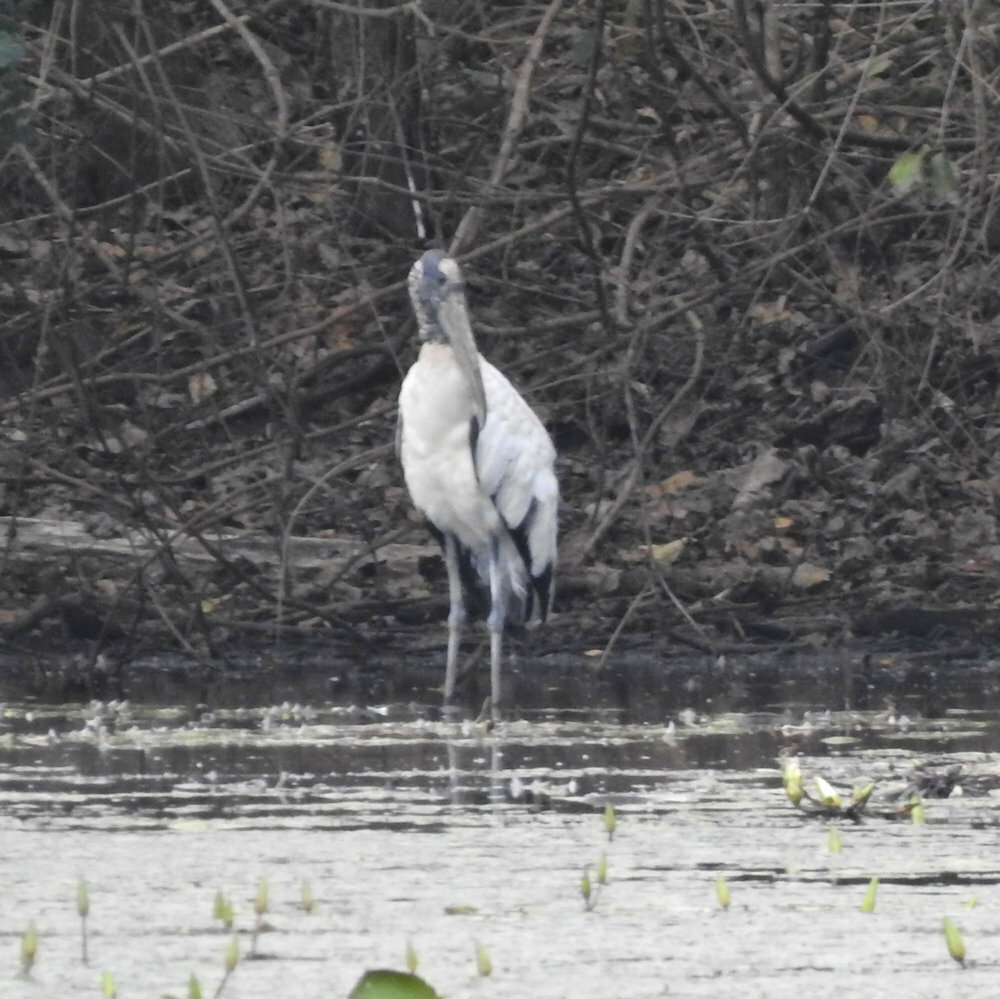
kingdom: Animalia
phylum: Chordata
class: Aves
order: Ciconiiformes
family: Ciconiidae
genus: Mycteria
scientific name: Mycteria americana
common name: Wood stork
